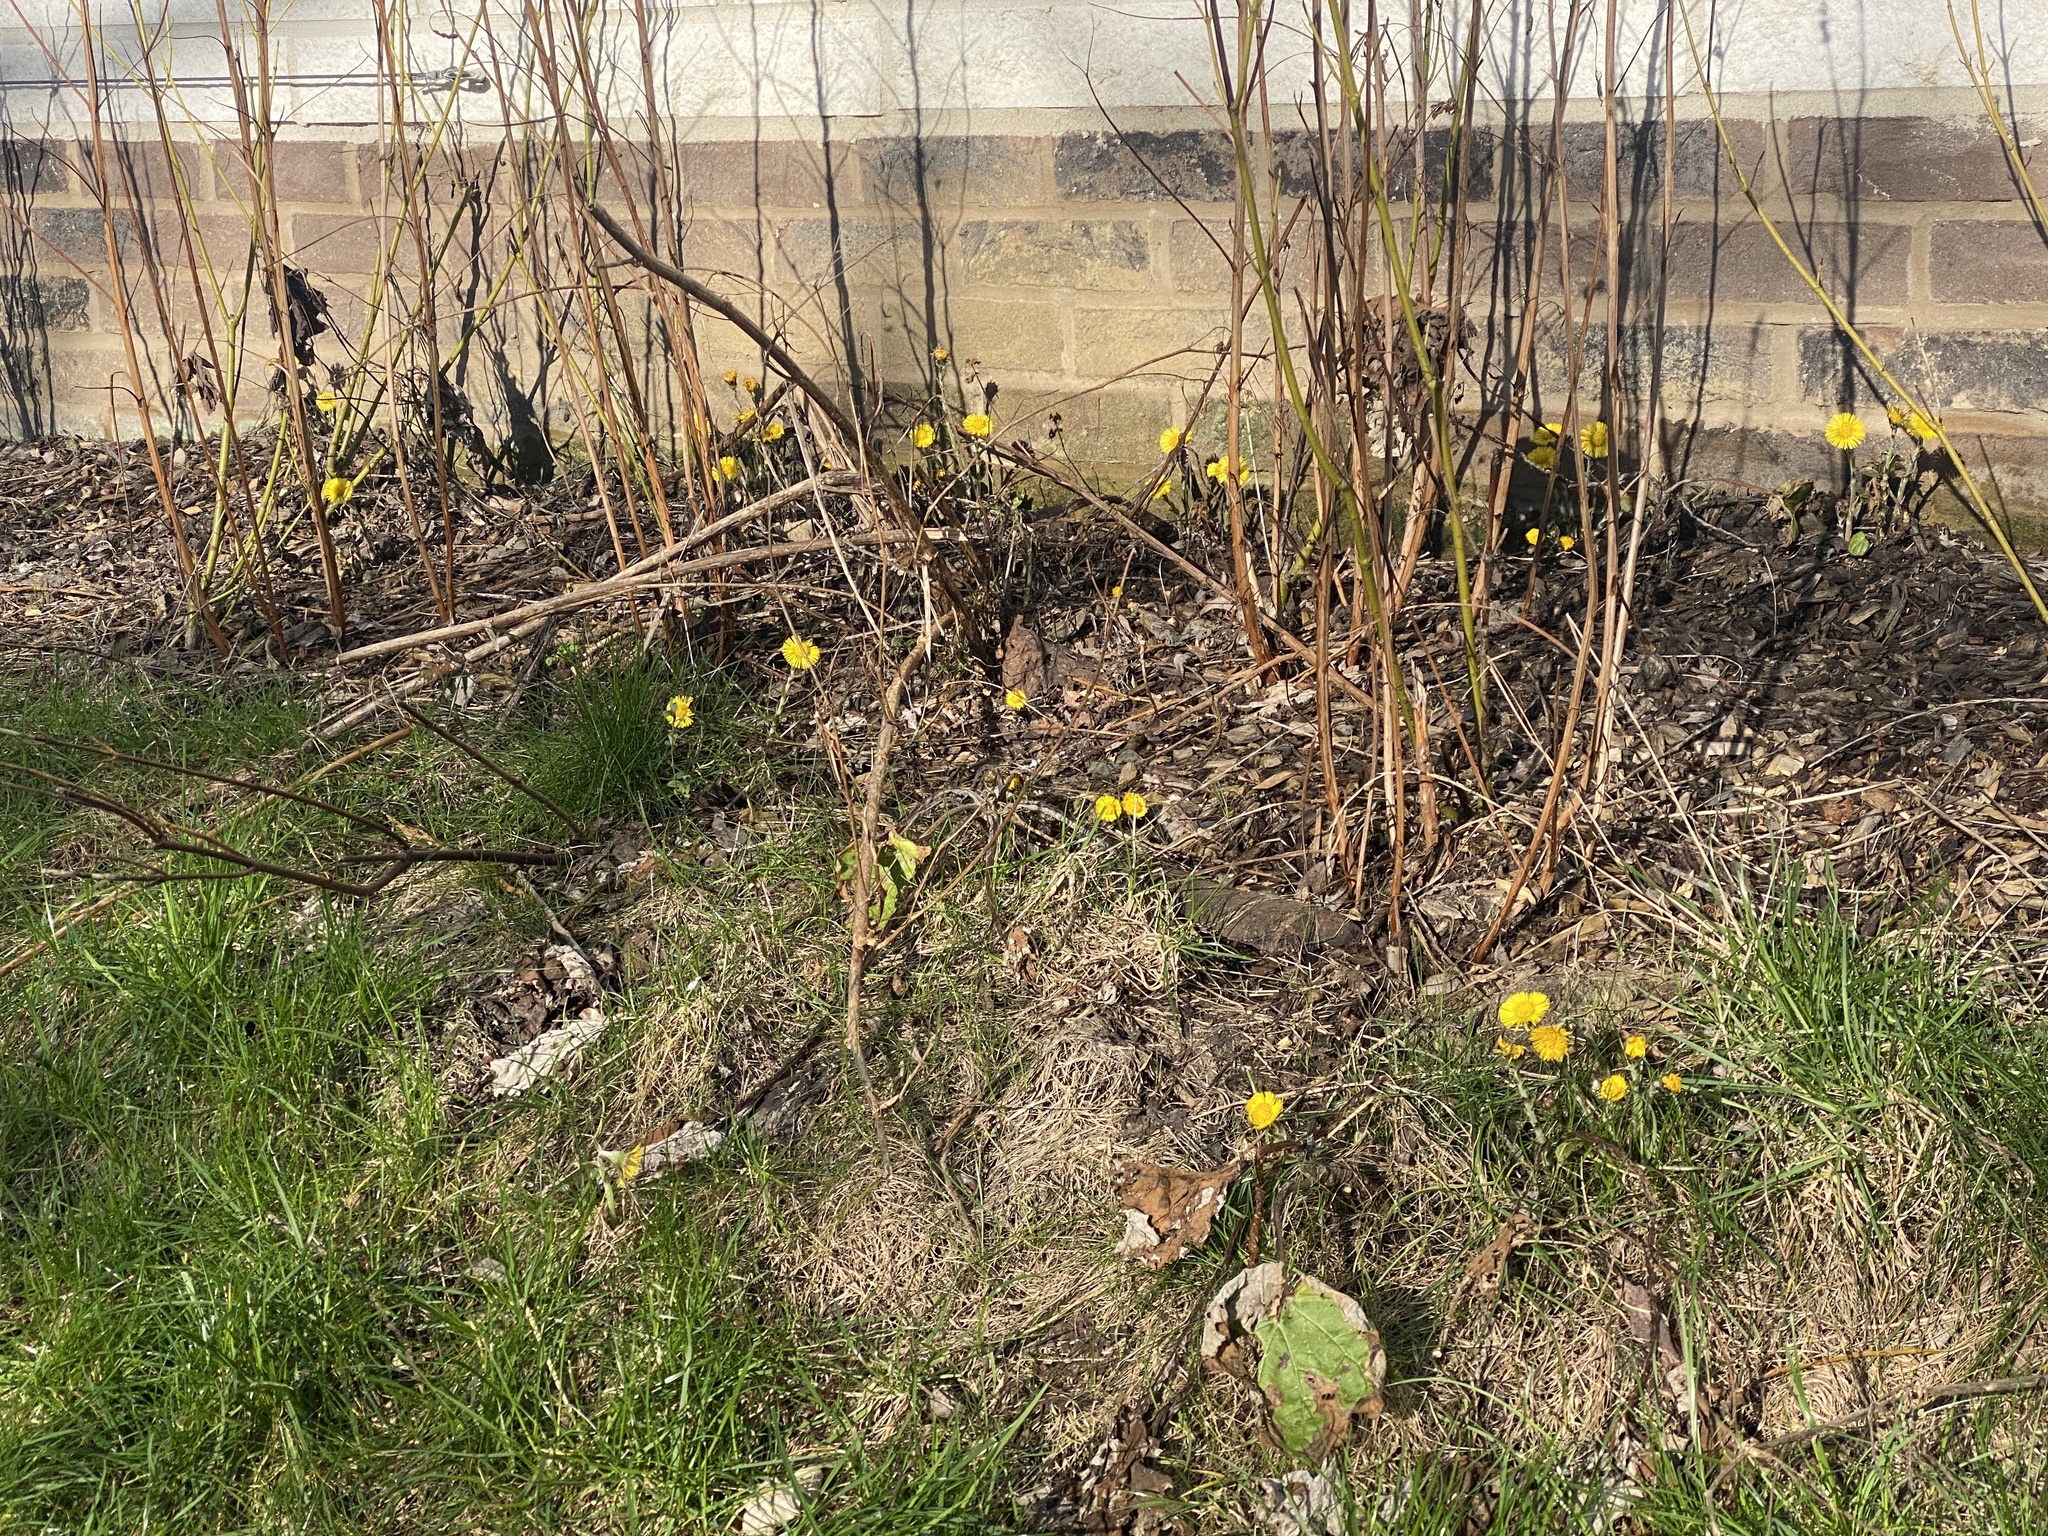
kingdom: Plantae
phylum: Tracheophyta
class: Magnoliopsida
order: Asterales
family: Asteraceae
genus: Tussilago
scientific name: Tussilago farfara
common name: Coltsfoot
